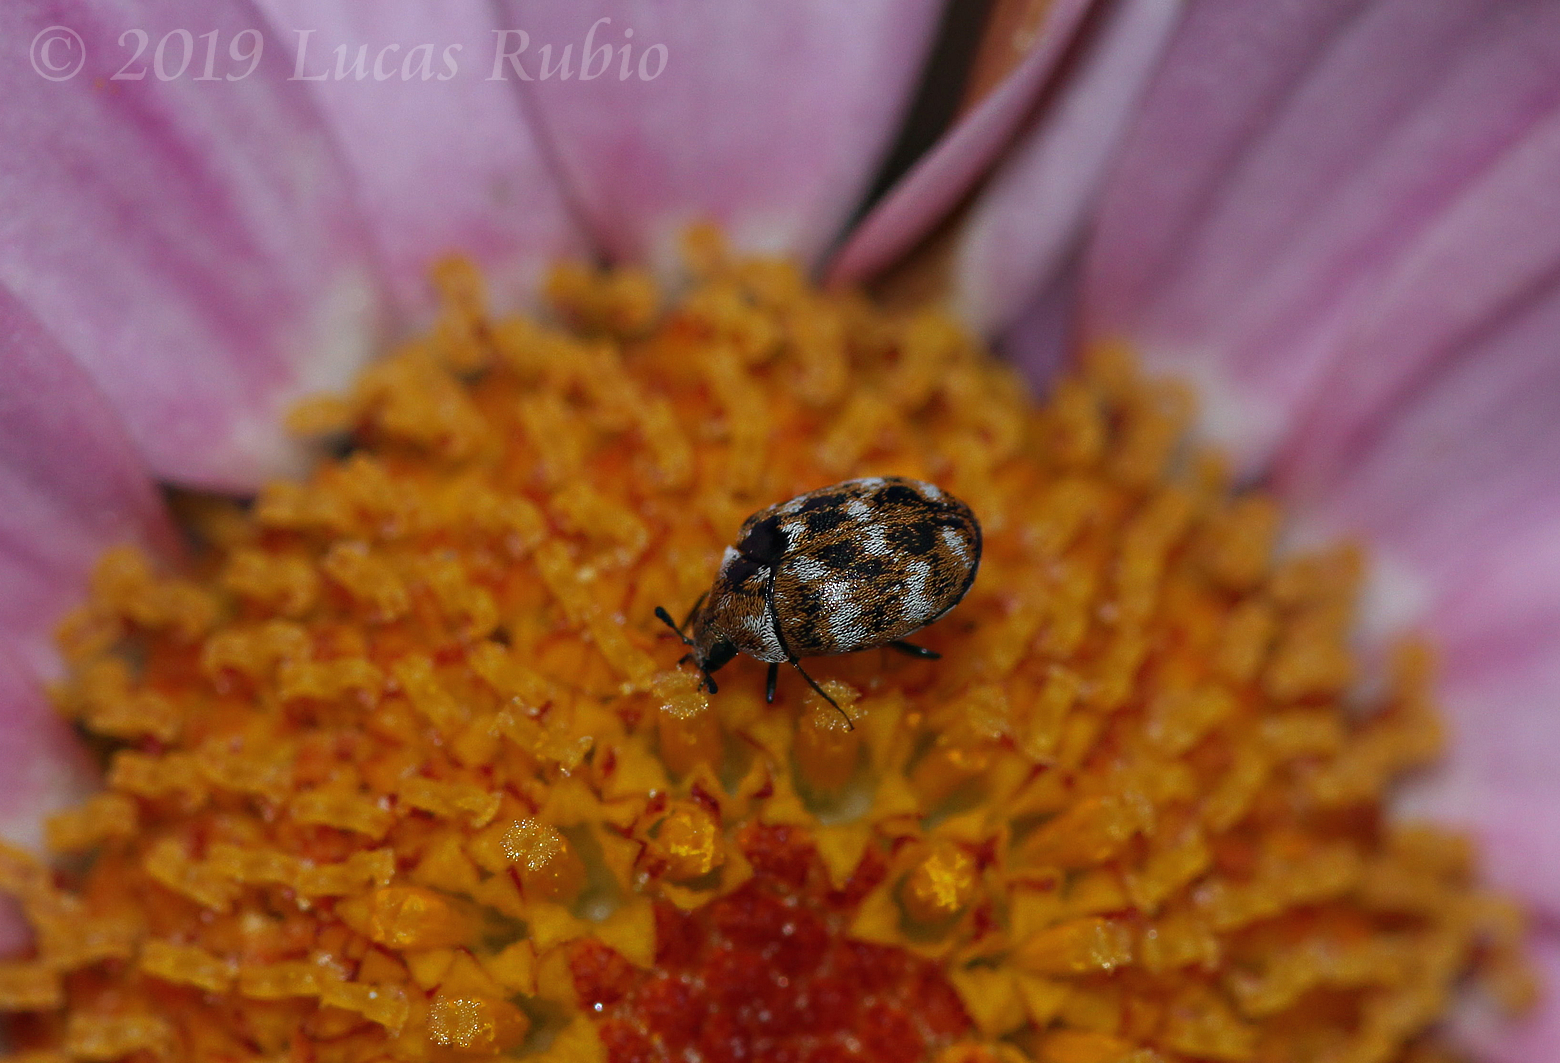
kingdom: Animalia
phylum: Arthropoda
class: Insecta
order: Coleoptera
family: Dermestidae
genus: Anthrenus
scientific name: Anthrenus verbasci
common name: Varied carpet beetle
